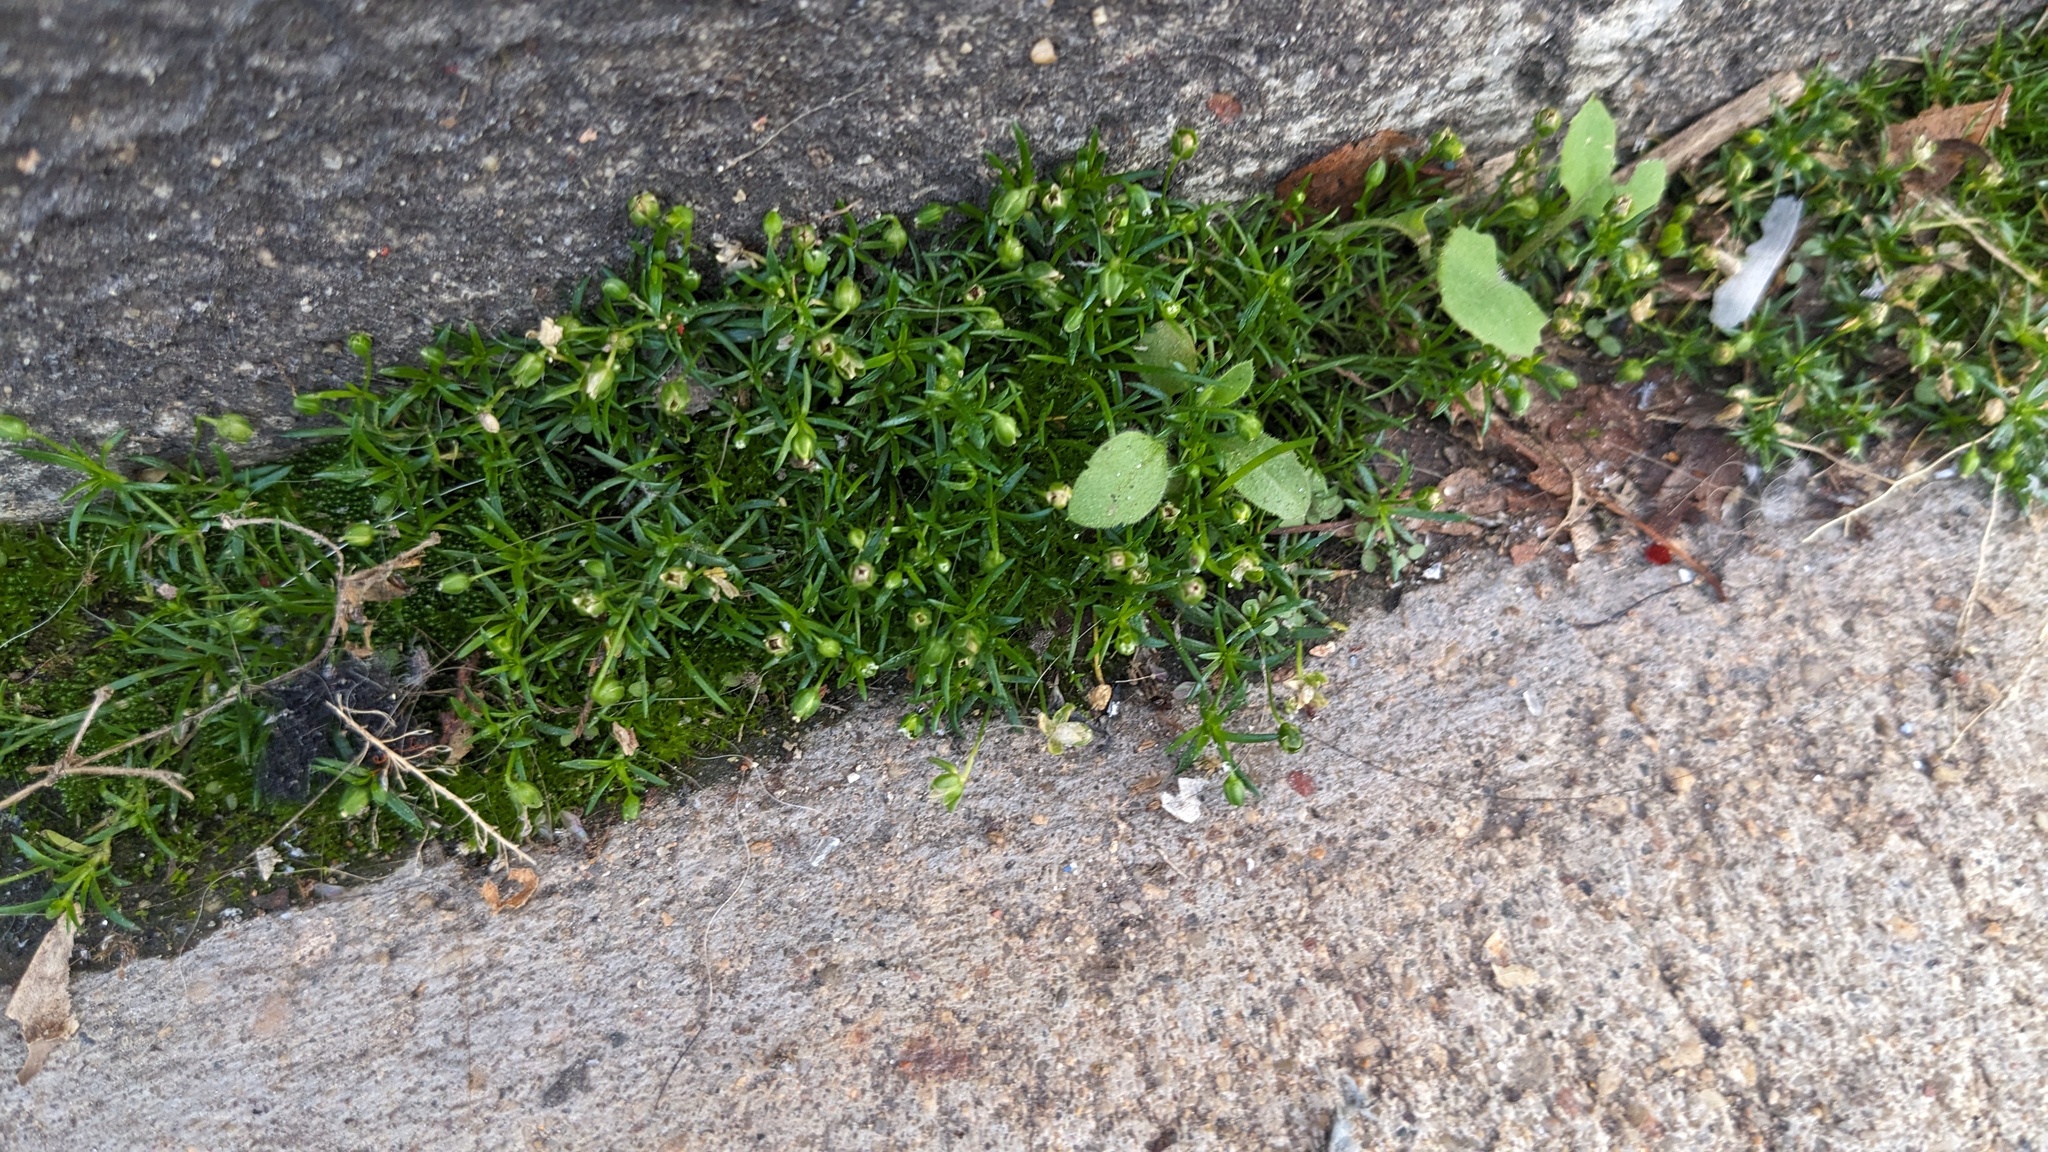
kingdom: Plantae
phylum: Tracheophyta
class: Magnoliopsida
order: Caryophyllales
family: Caryophyllaceae
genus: Sagina
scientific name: Sagina procumbens
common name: Procumbent pearlwort
